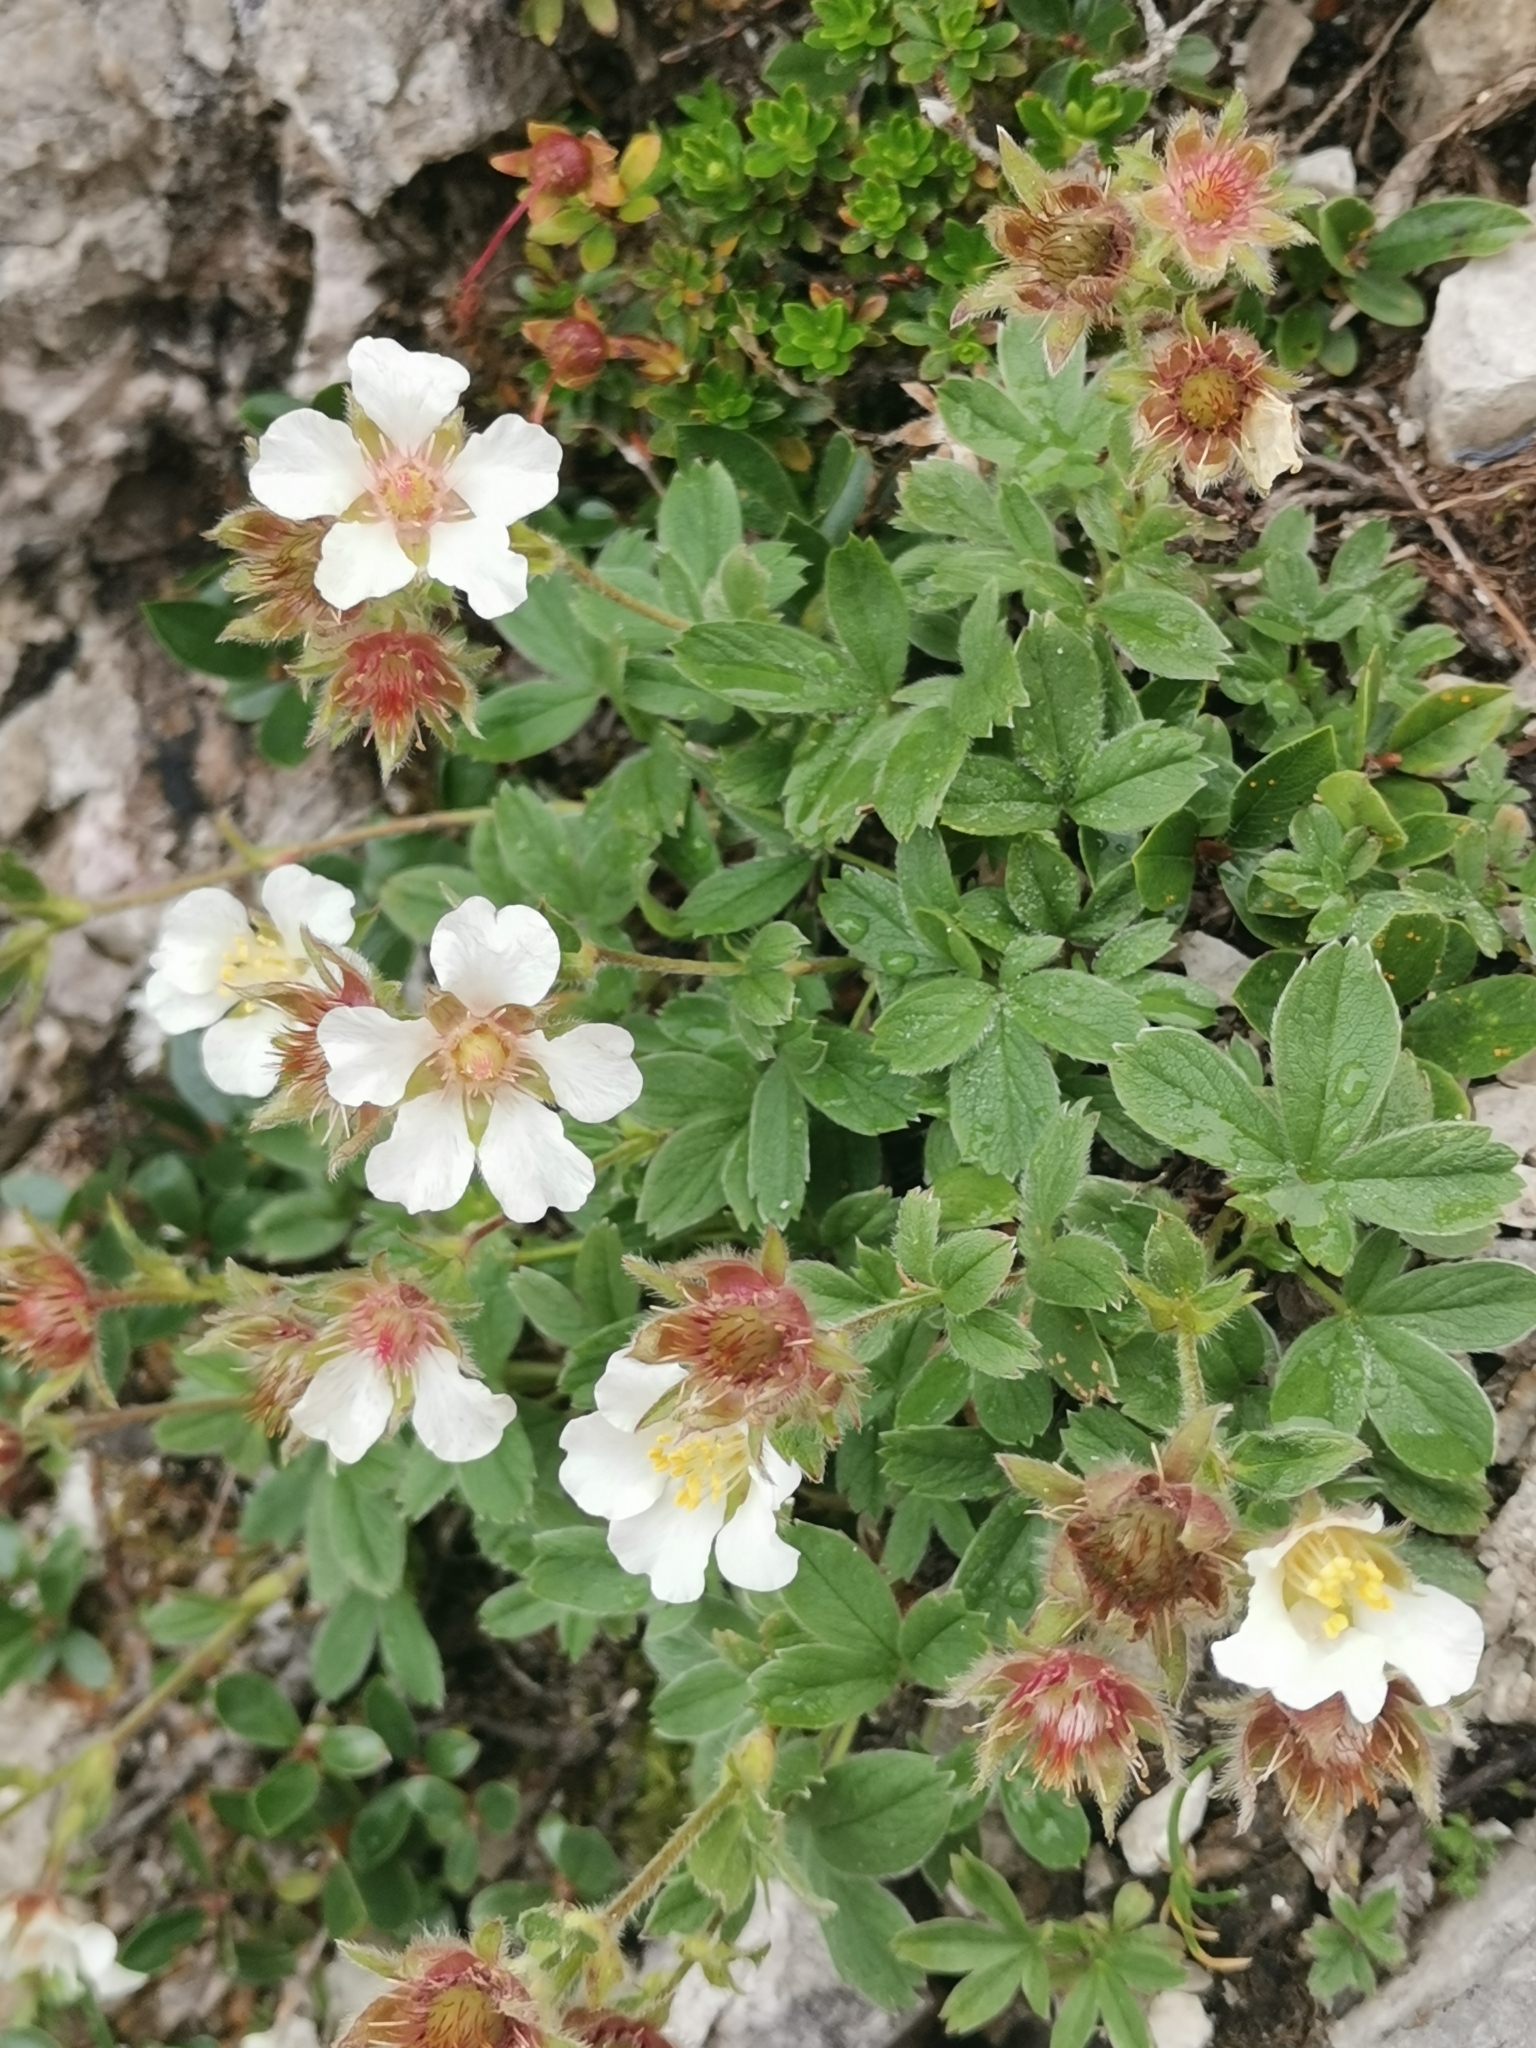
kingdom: Plantae
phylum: Tracheophyta
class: Magnoliopsida
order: Rosales
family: Rosaceae
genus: Potentilla
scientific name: Potentilla clusiana
